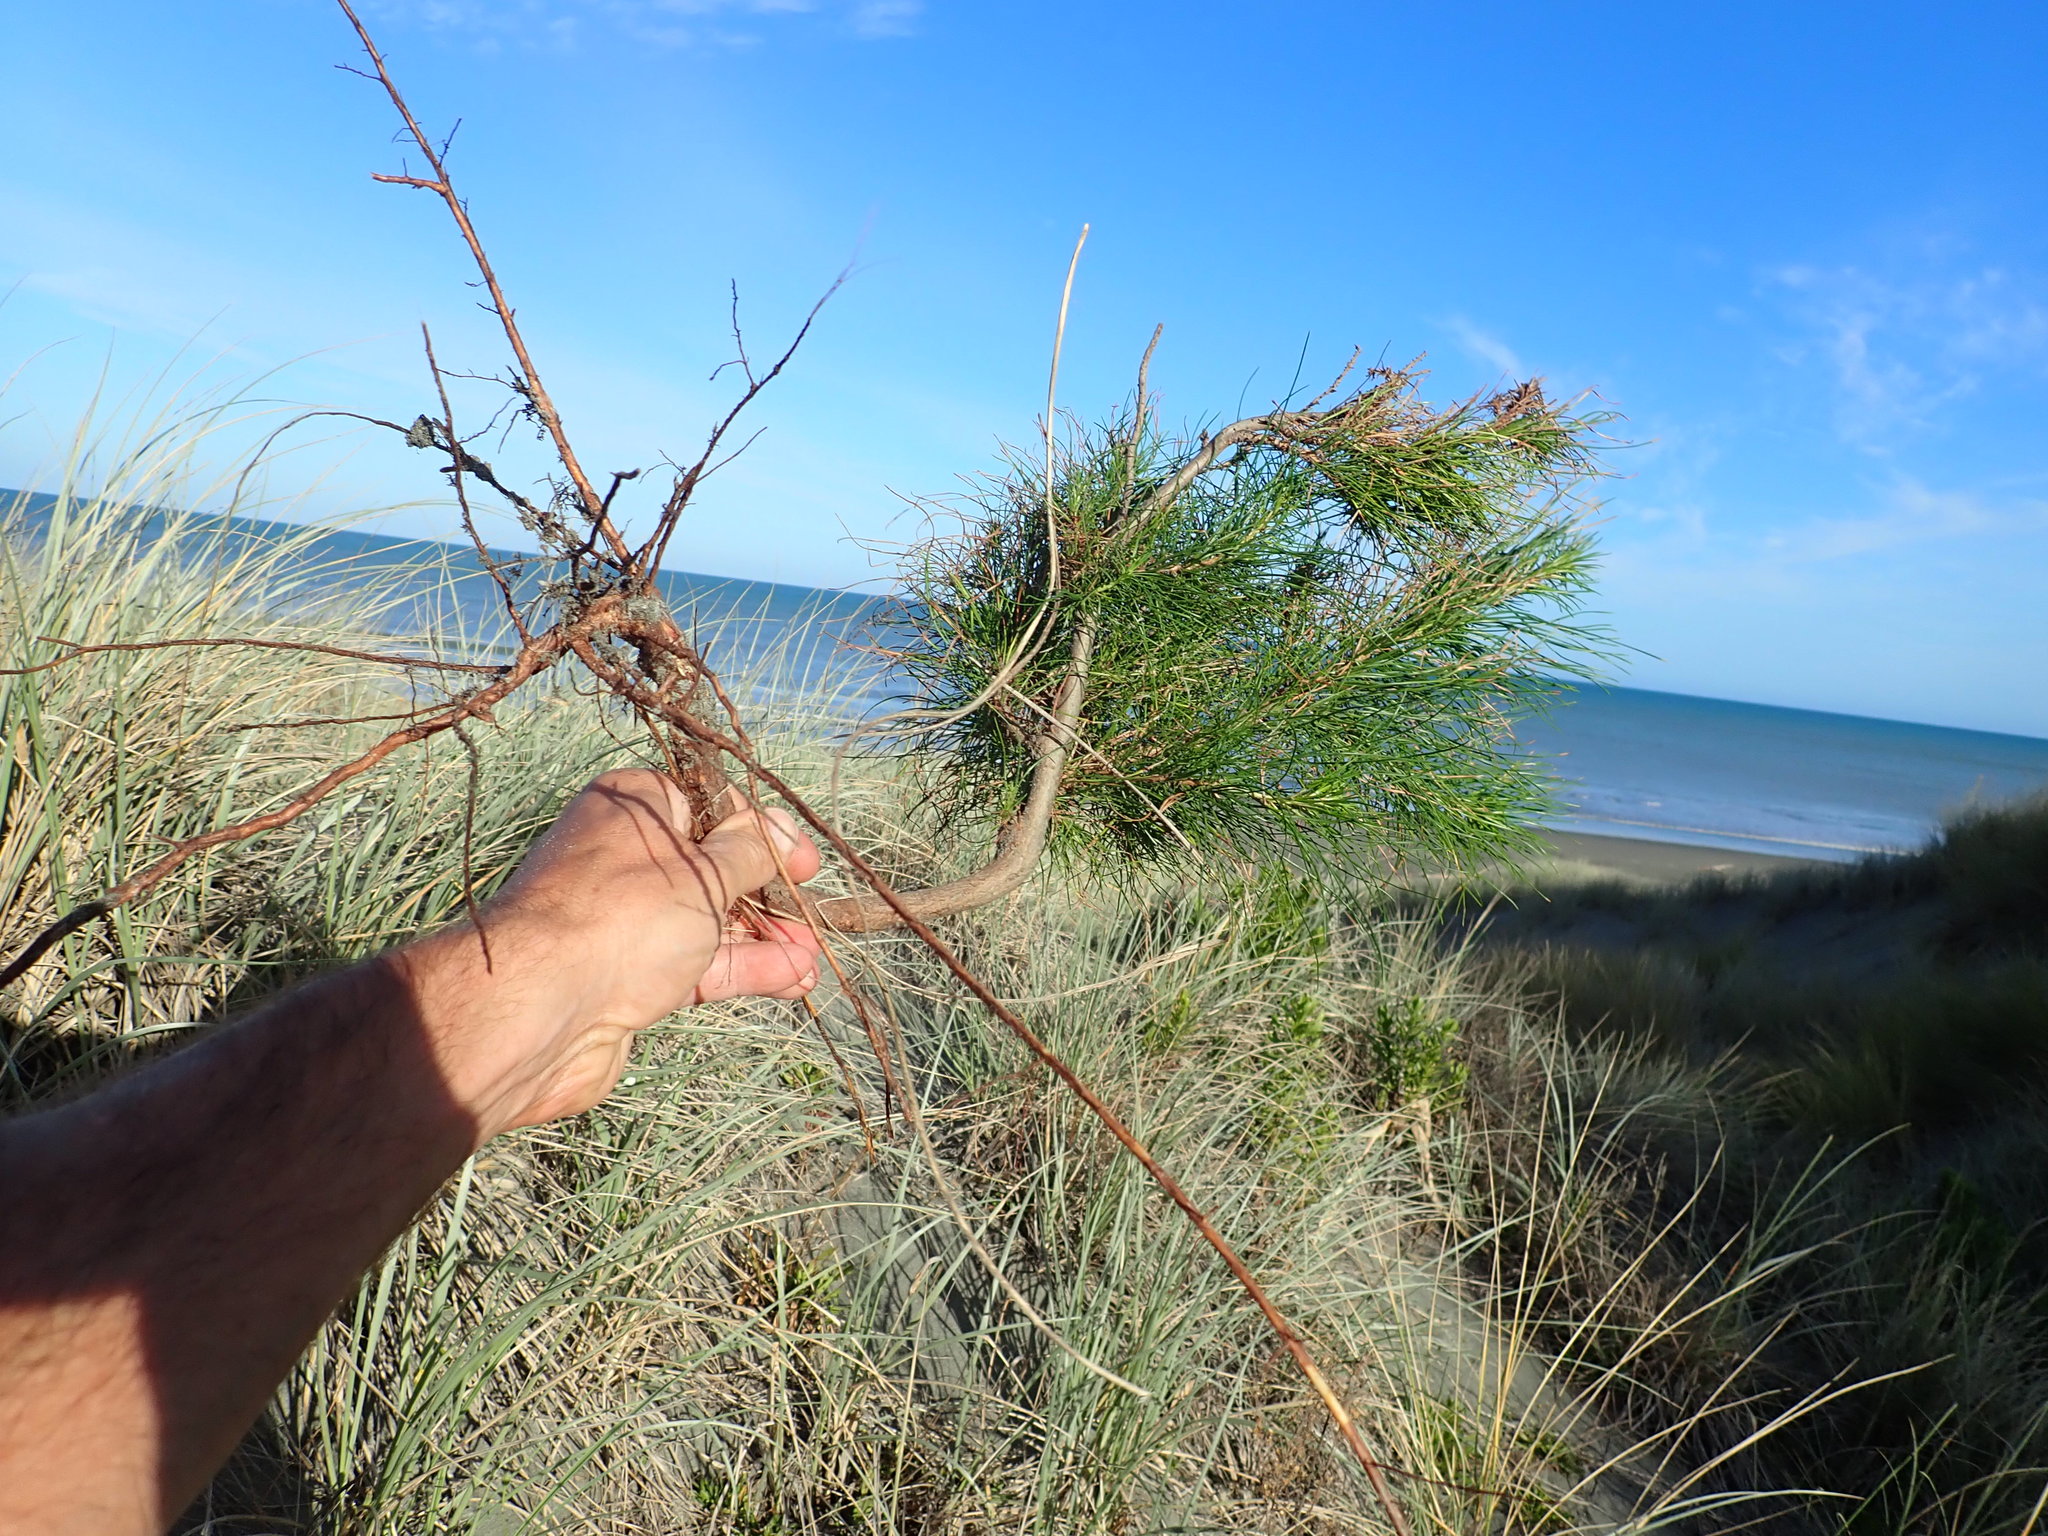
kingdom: Plantae
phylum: Tracheophyta
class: Pinopsida
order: Pinales
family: Pinaceae
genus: Pinus
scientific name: Pinus radiata
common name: Monterey pine
